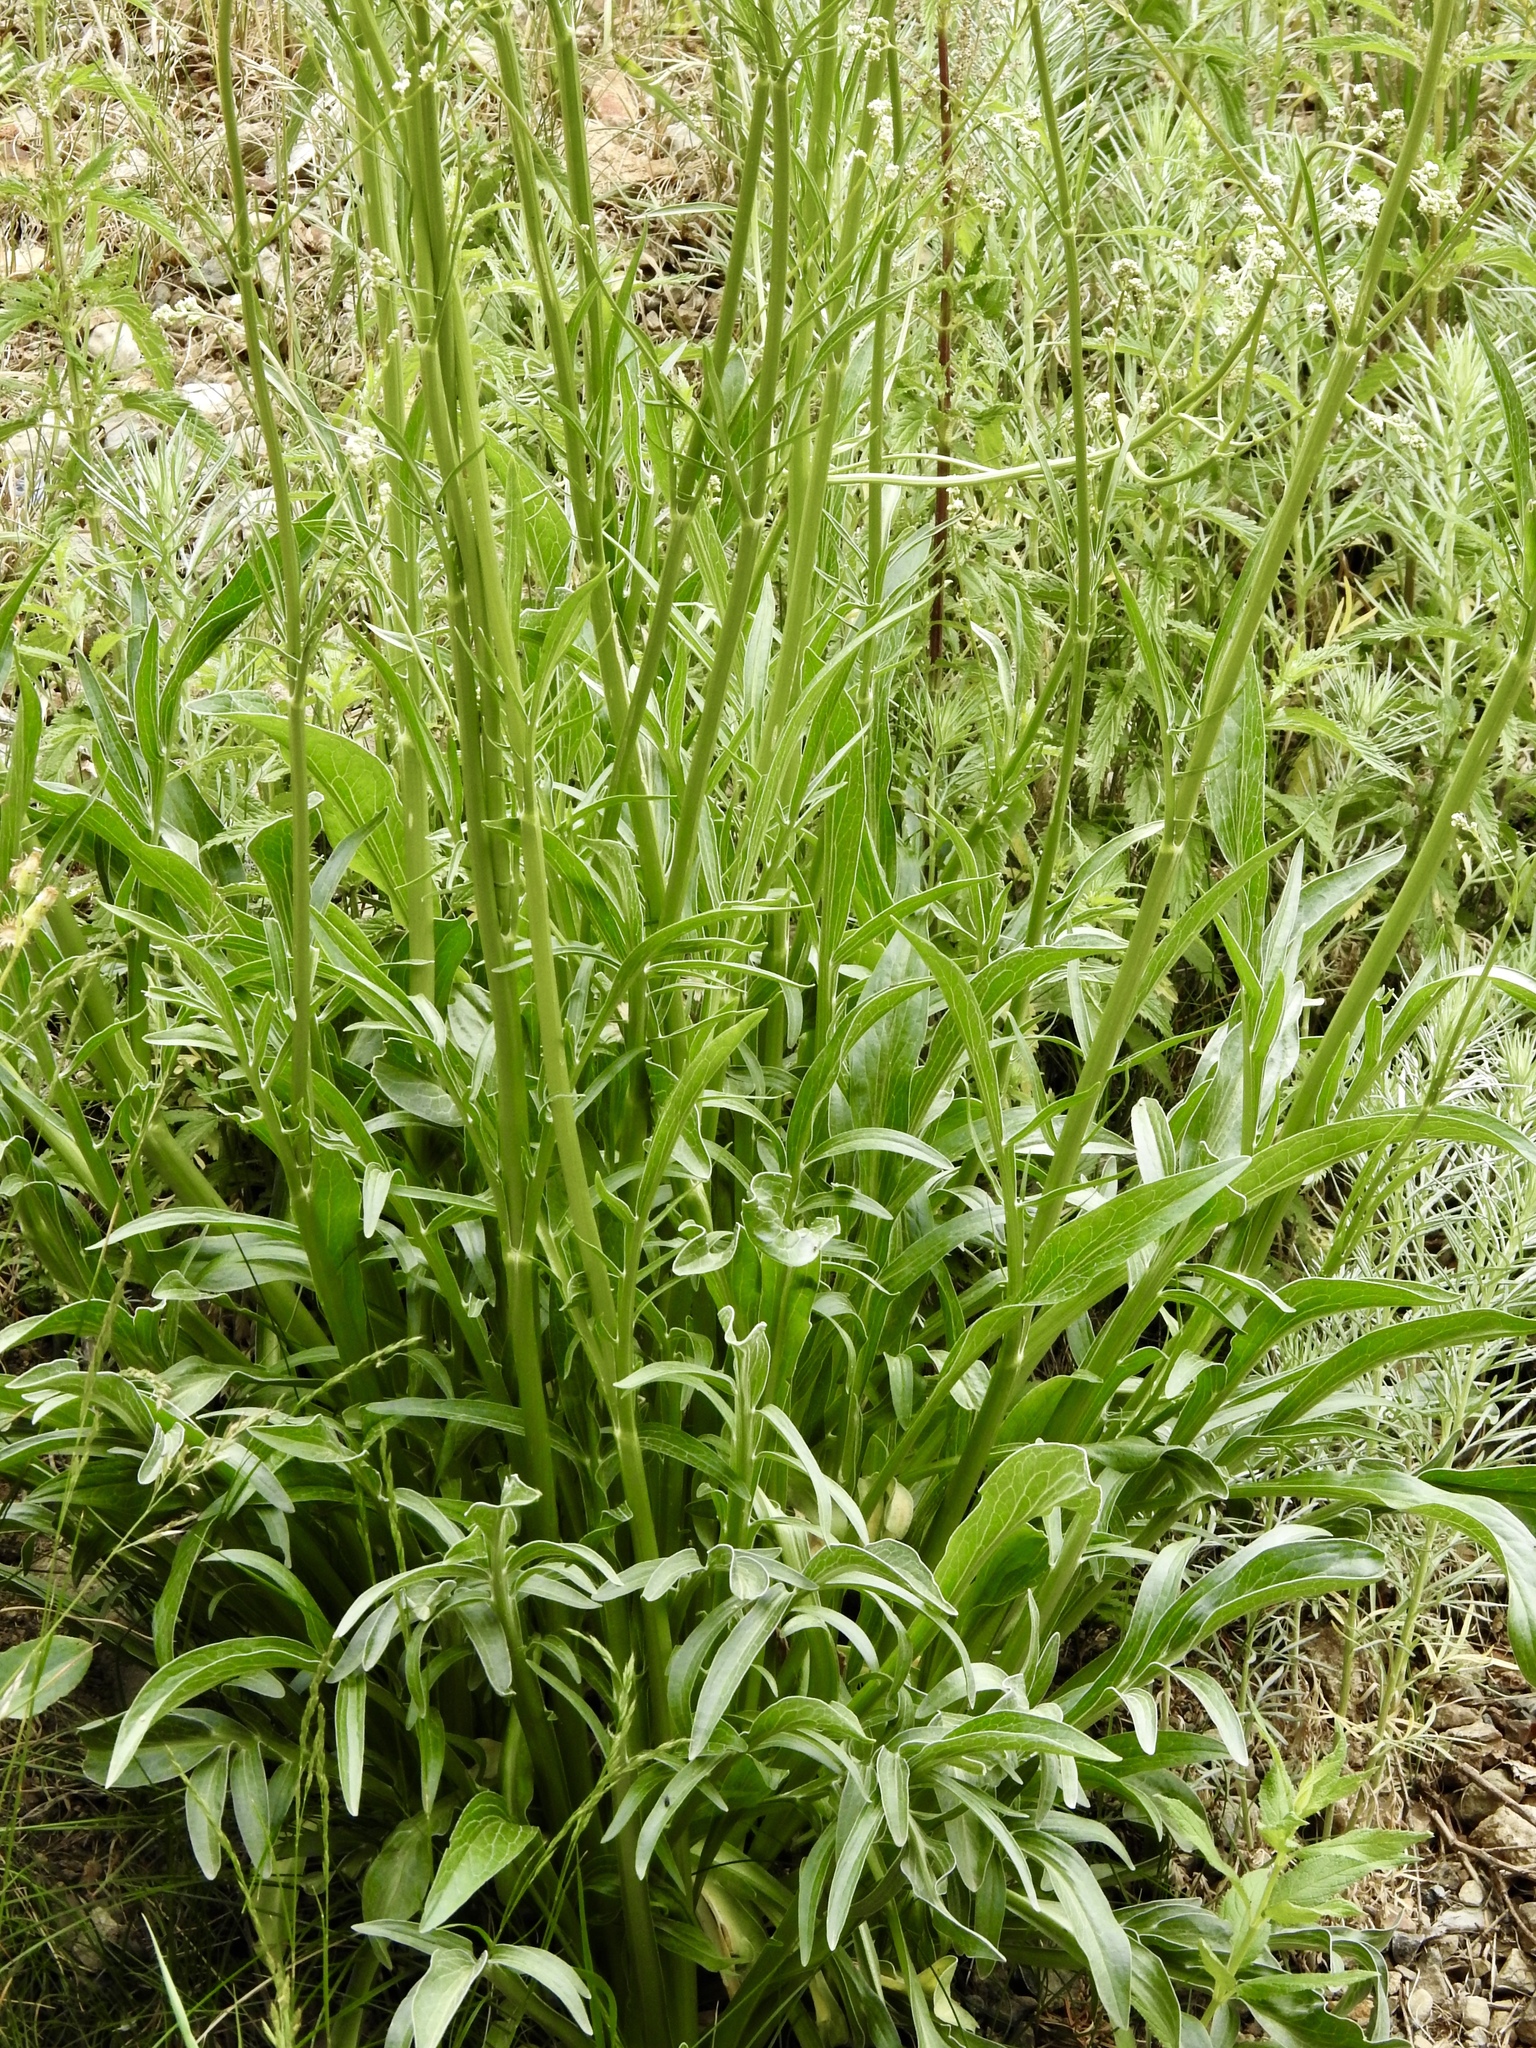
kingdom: Plantae
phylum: Tracheophyta
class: Magnoliopsida
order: Dipsacales
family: Caprifoliaceae
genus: Valeriana
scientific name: Valeriana edulis
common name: Taproot valerian
